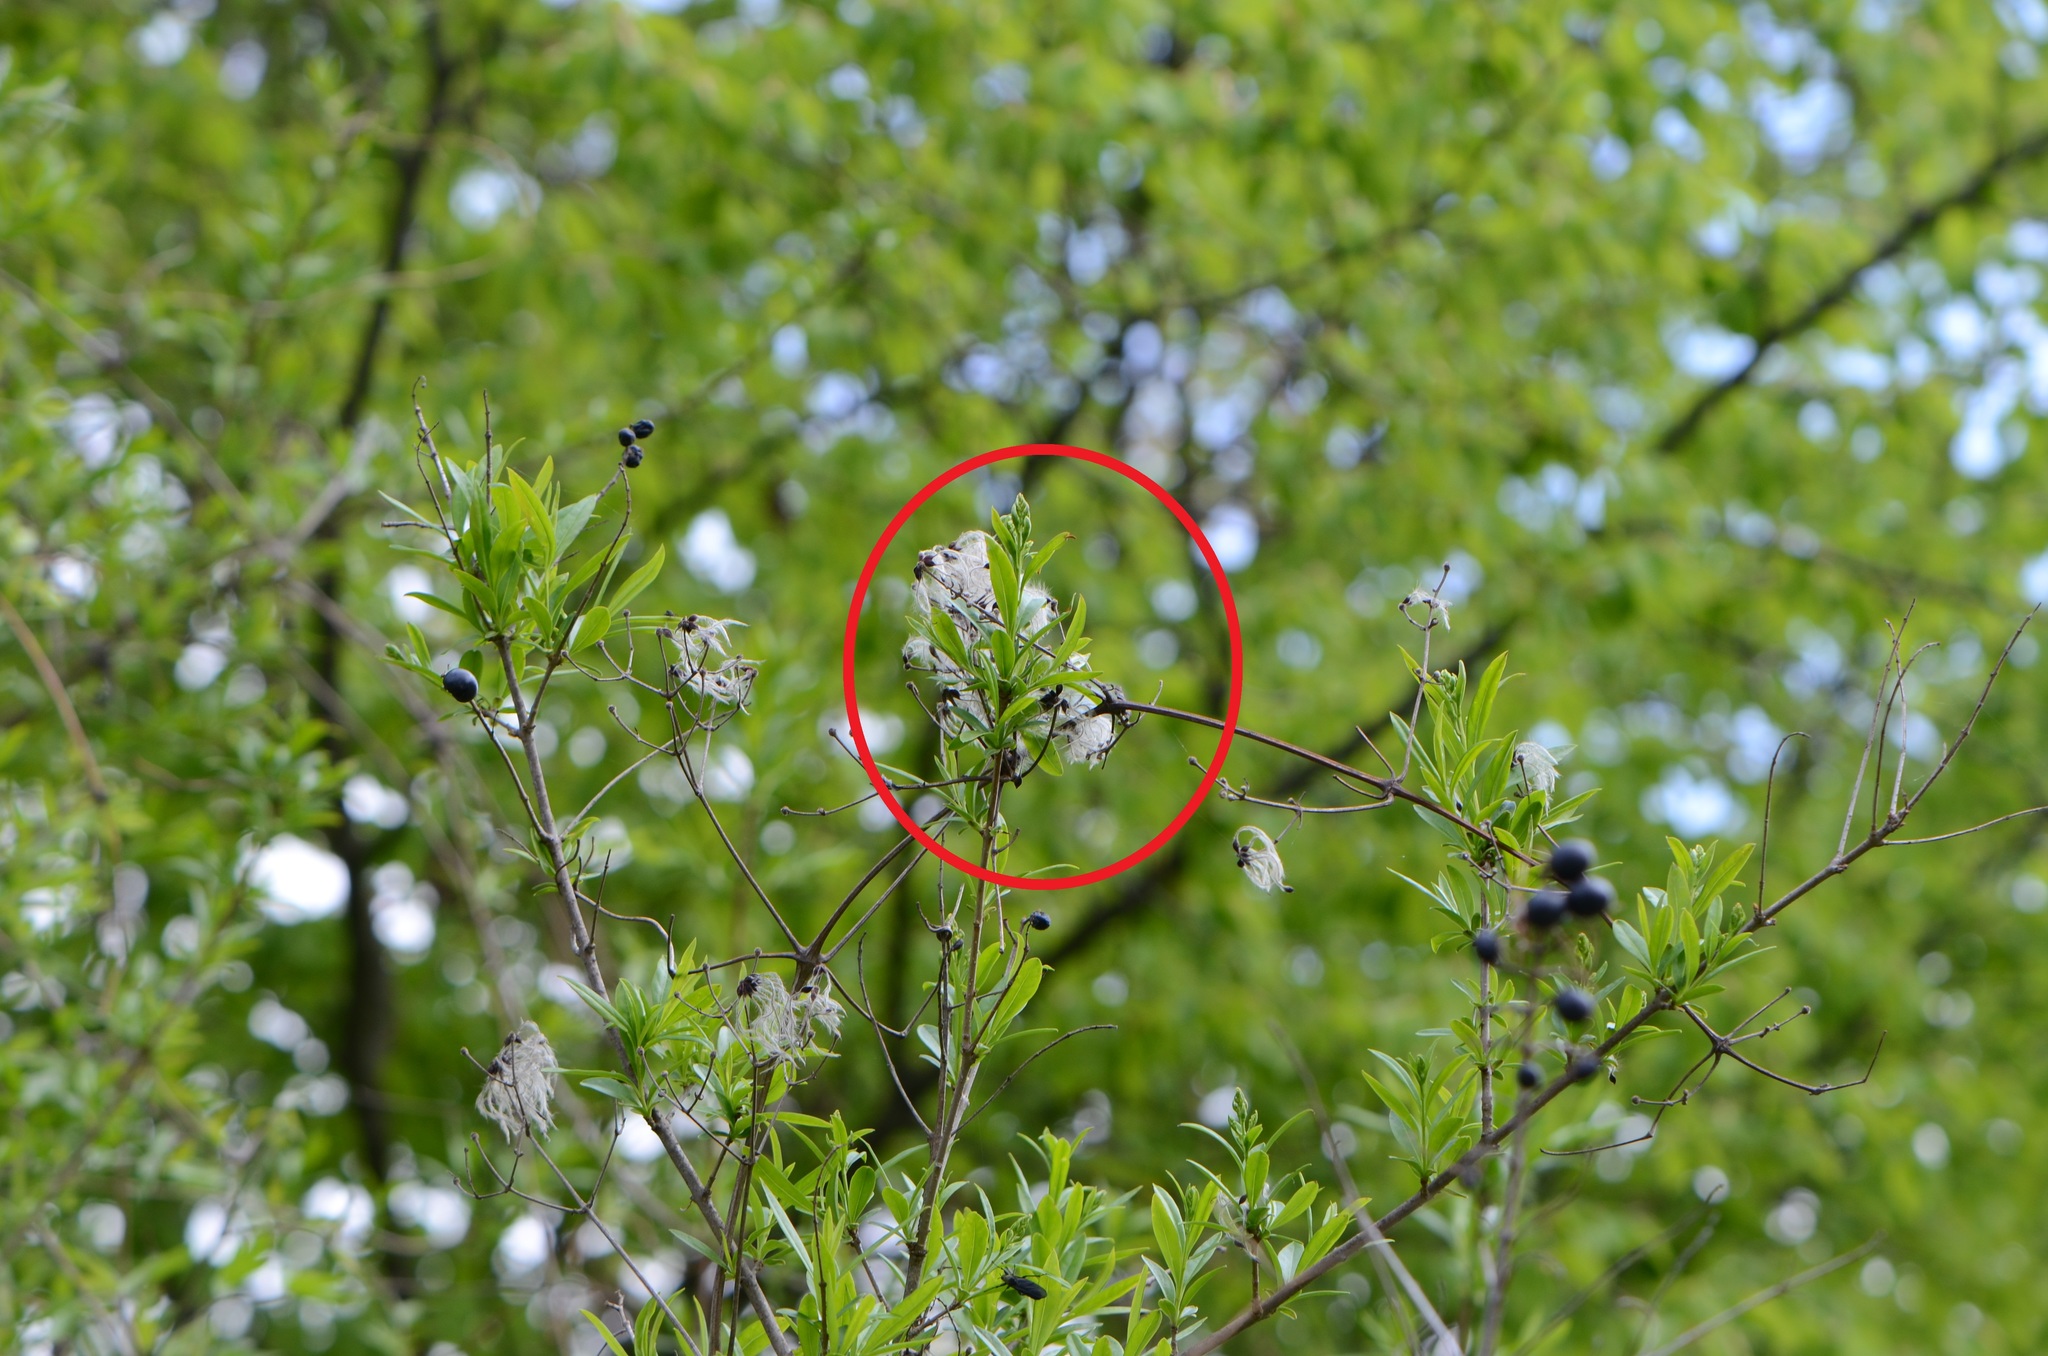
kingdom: Plantae
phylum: Tracheophyta
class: Magnoliopsida
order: Ranunculales
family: Ranunculaceae
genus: Clematis
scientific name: Clematis vitalba
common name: Evergreen clematis
